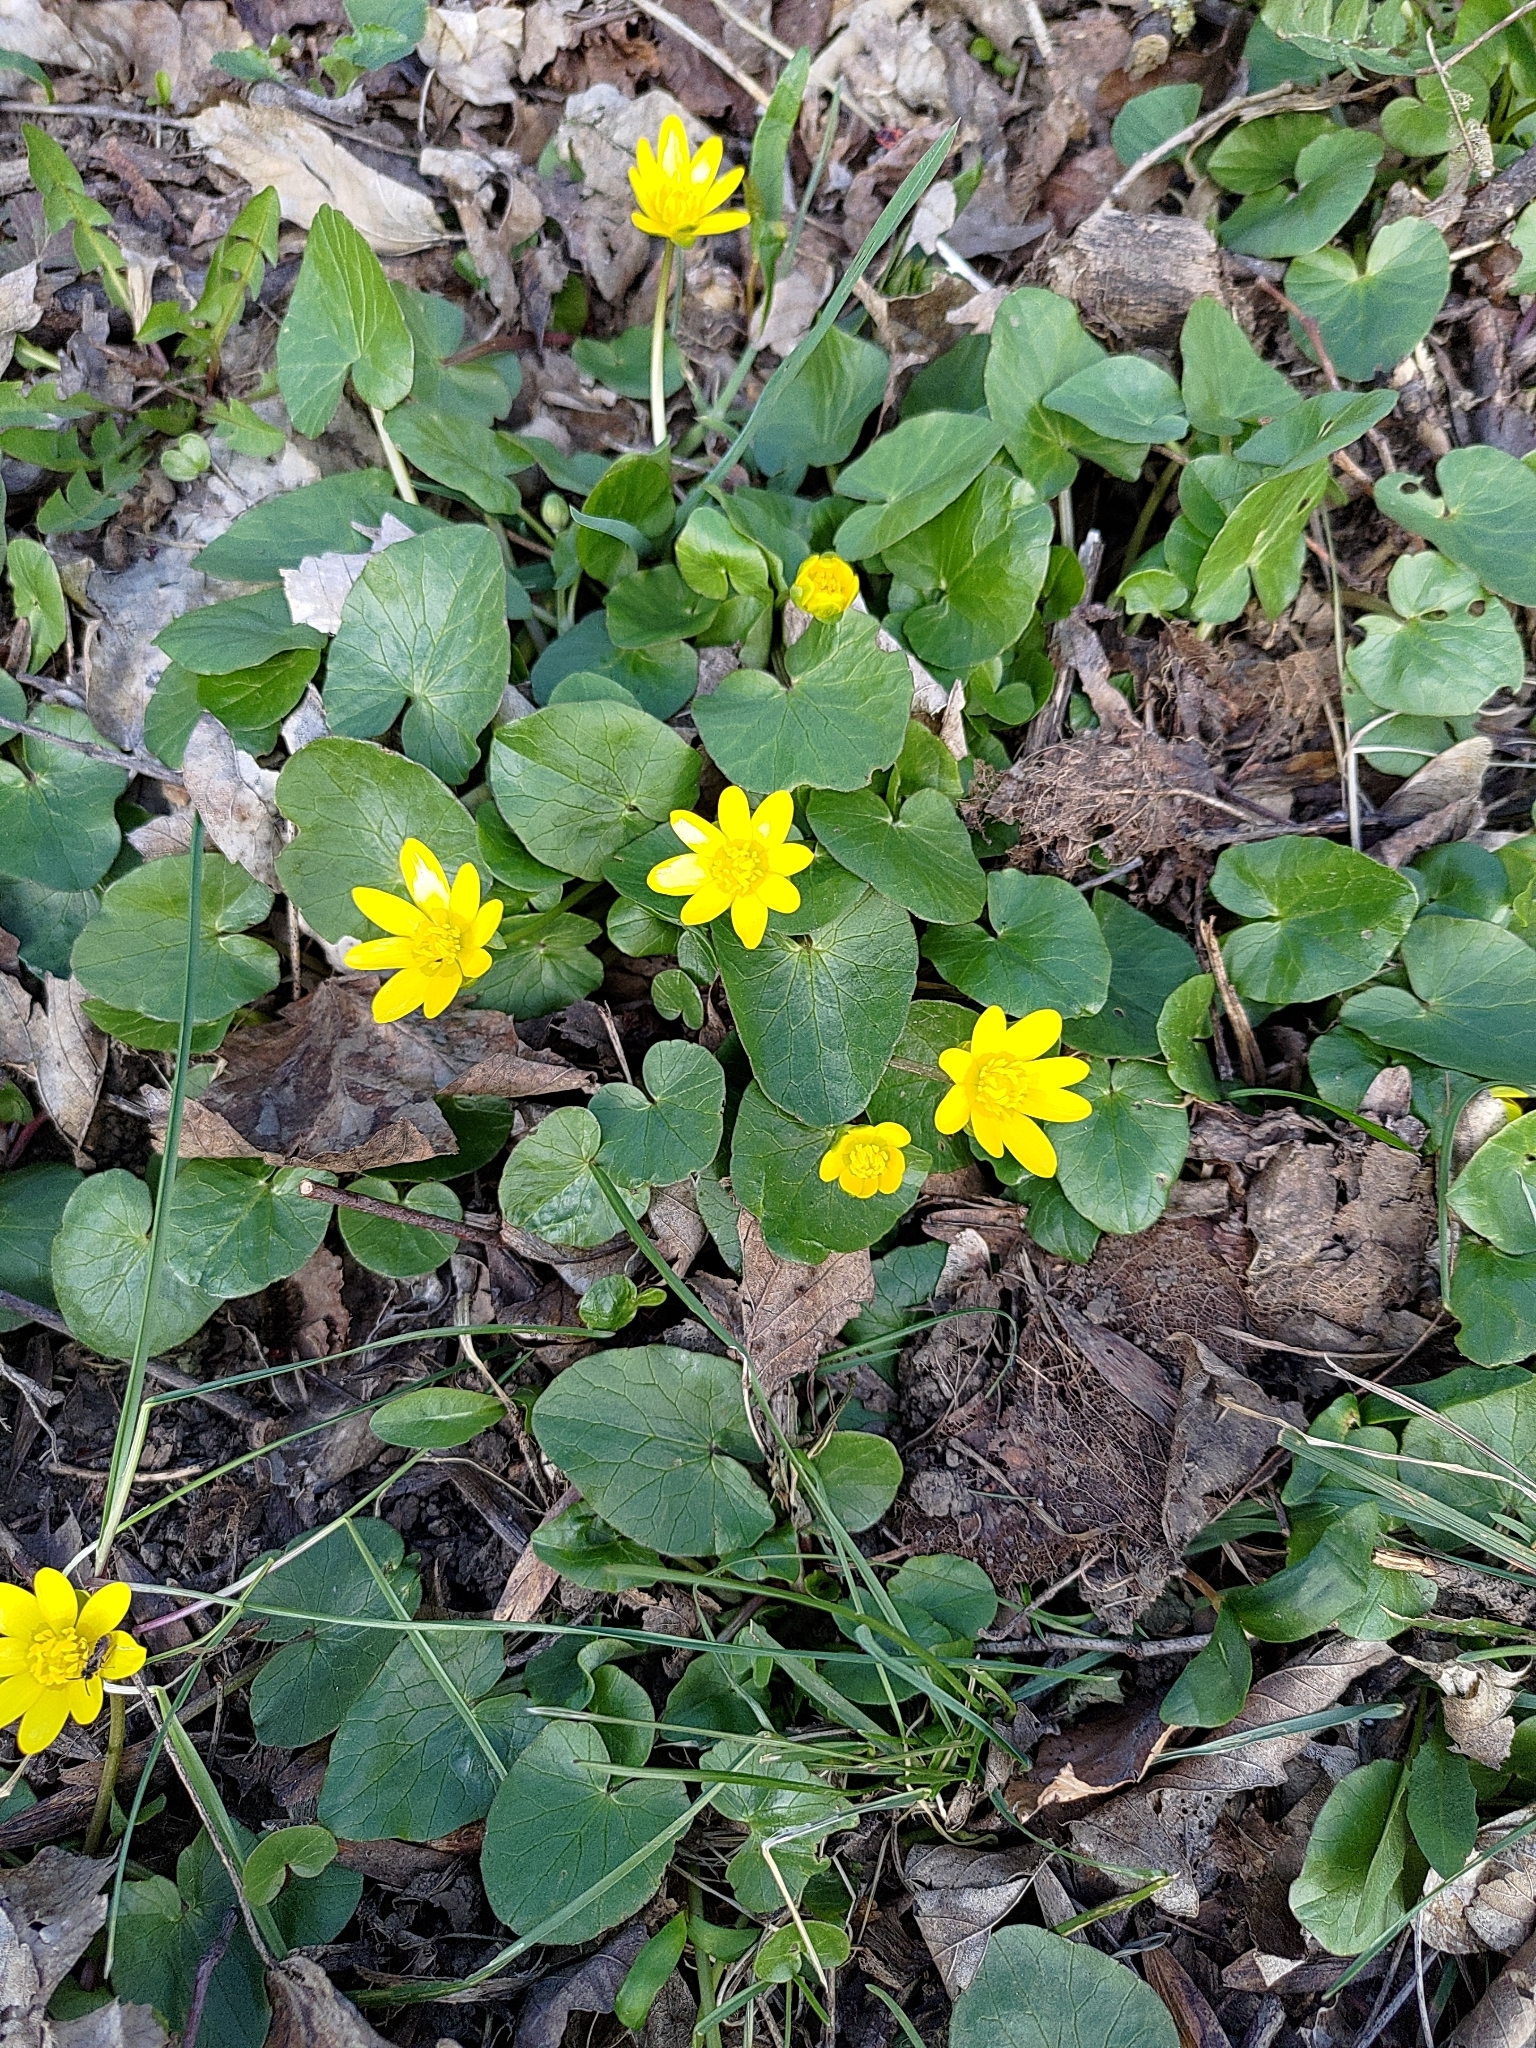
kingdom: Plantae
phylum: Tracheophyta
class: Magnoliopsida
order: Ranunculales
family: Ranunculaceae
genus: Ficaria
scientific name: Ficaria verna
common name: Lesser celandine
